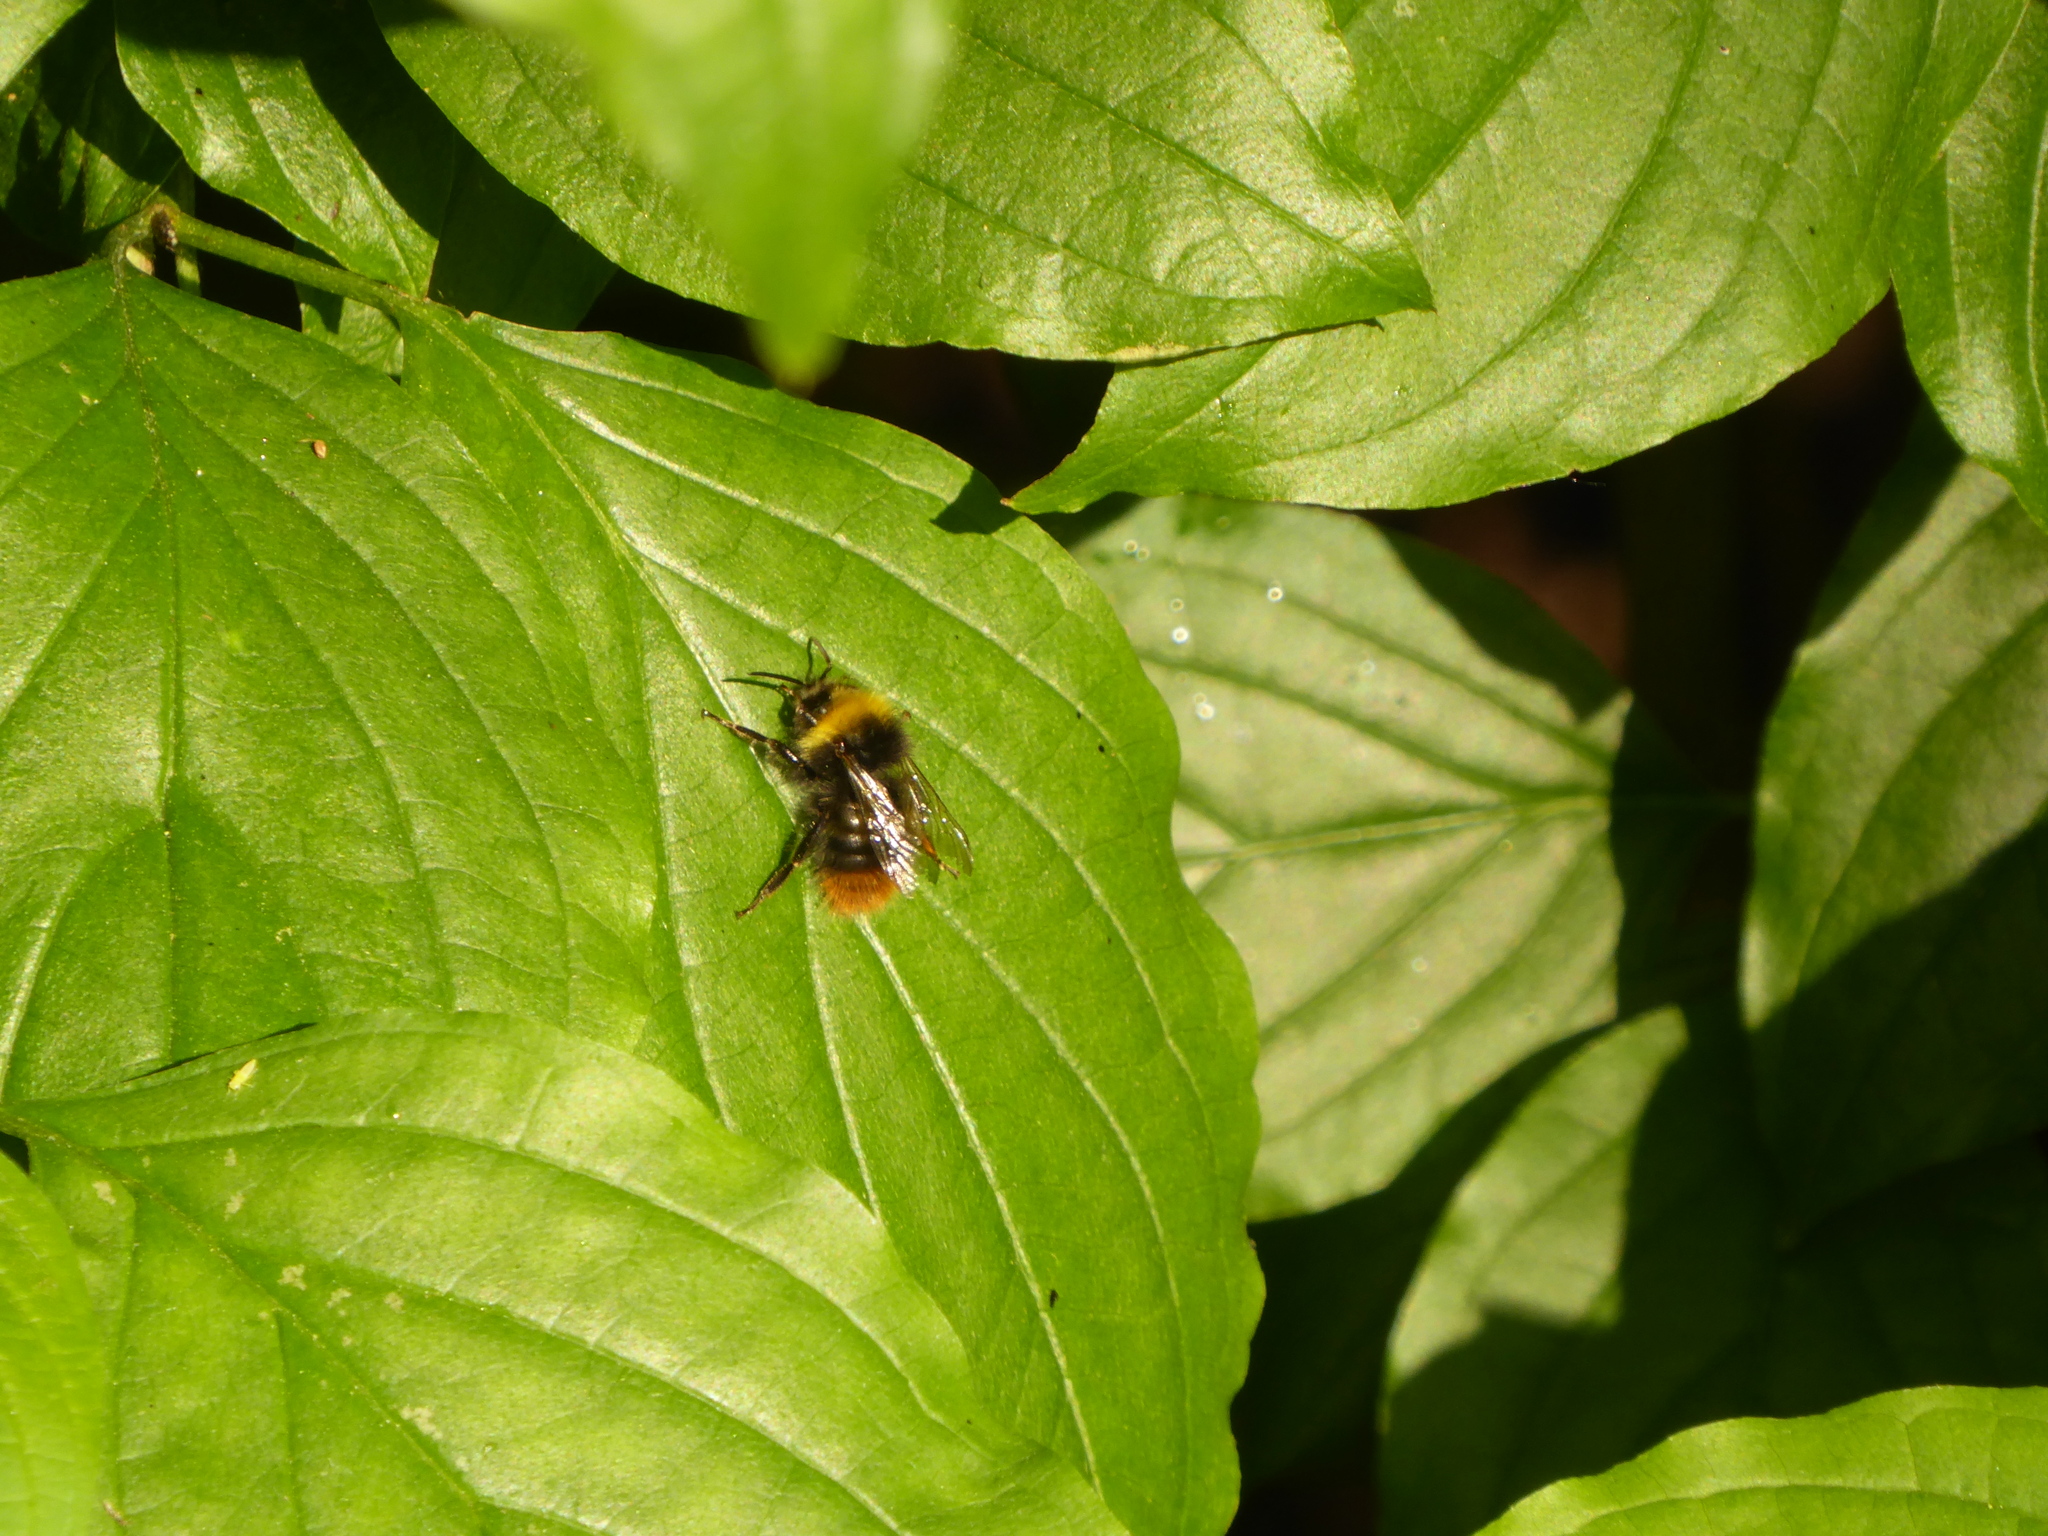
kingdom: Animalia
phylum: Arthropoda
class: Insecta
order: Hymenoptera
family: Apidae
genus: Bombus
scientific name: Bombus pratorum
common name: Early humble-bee
